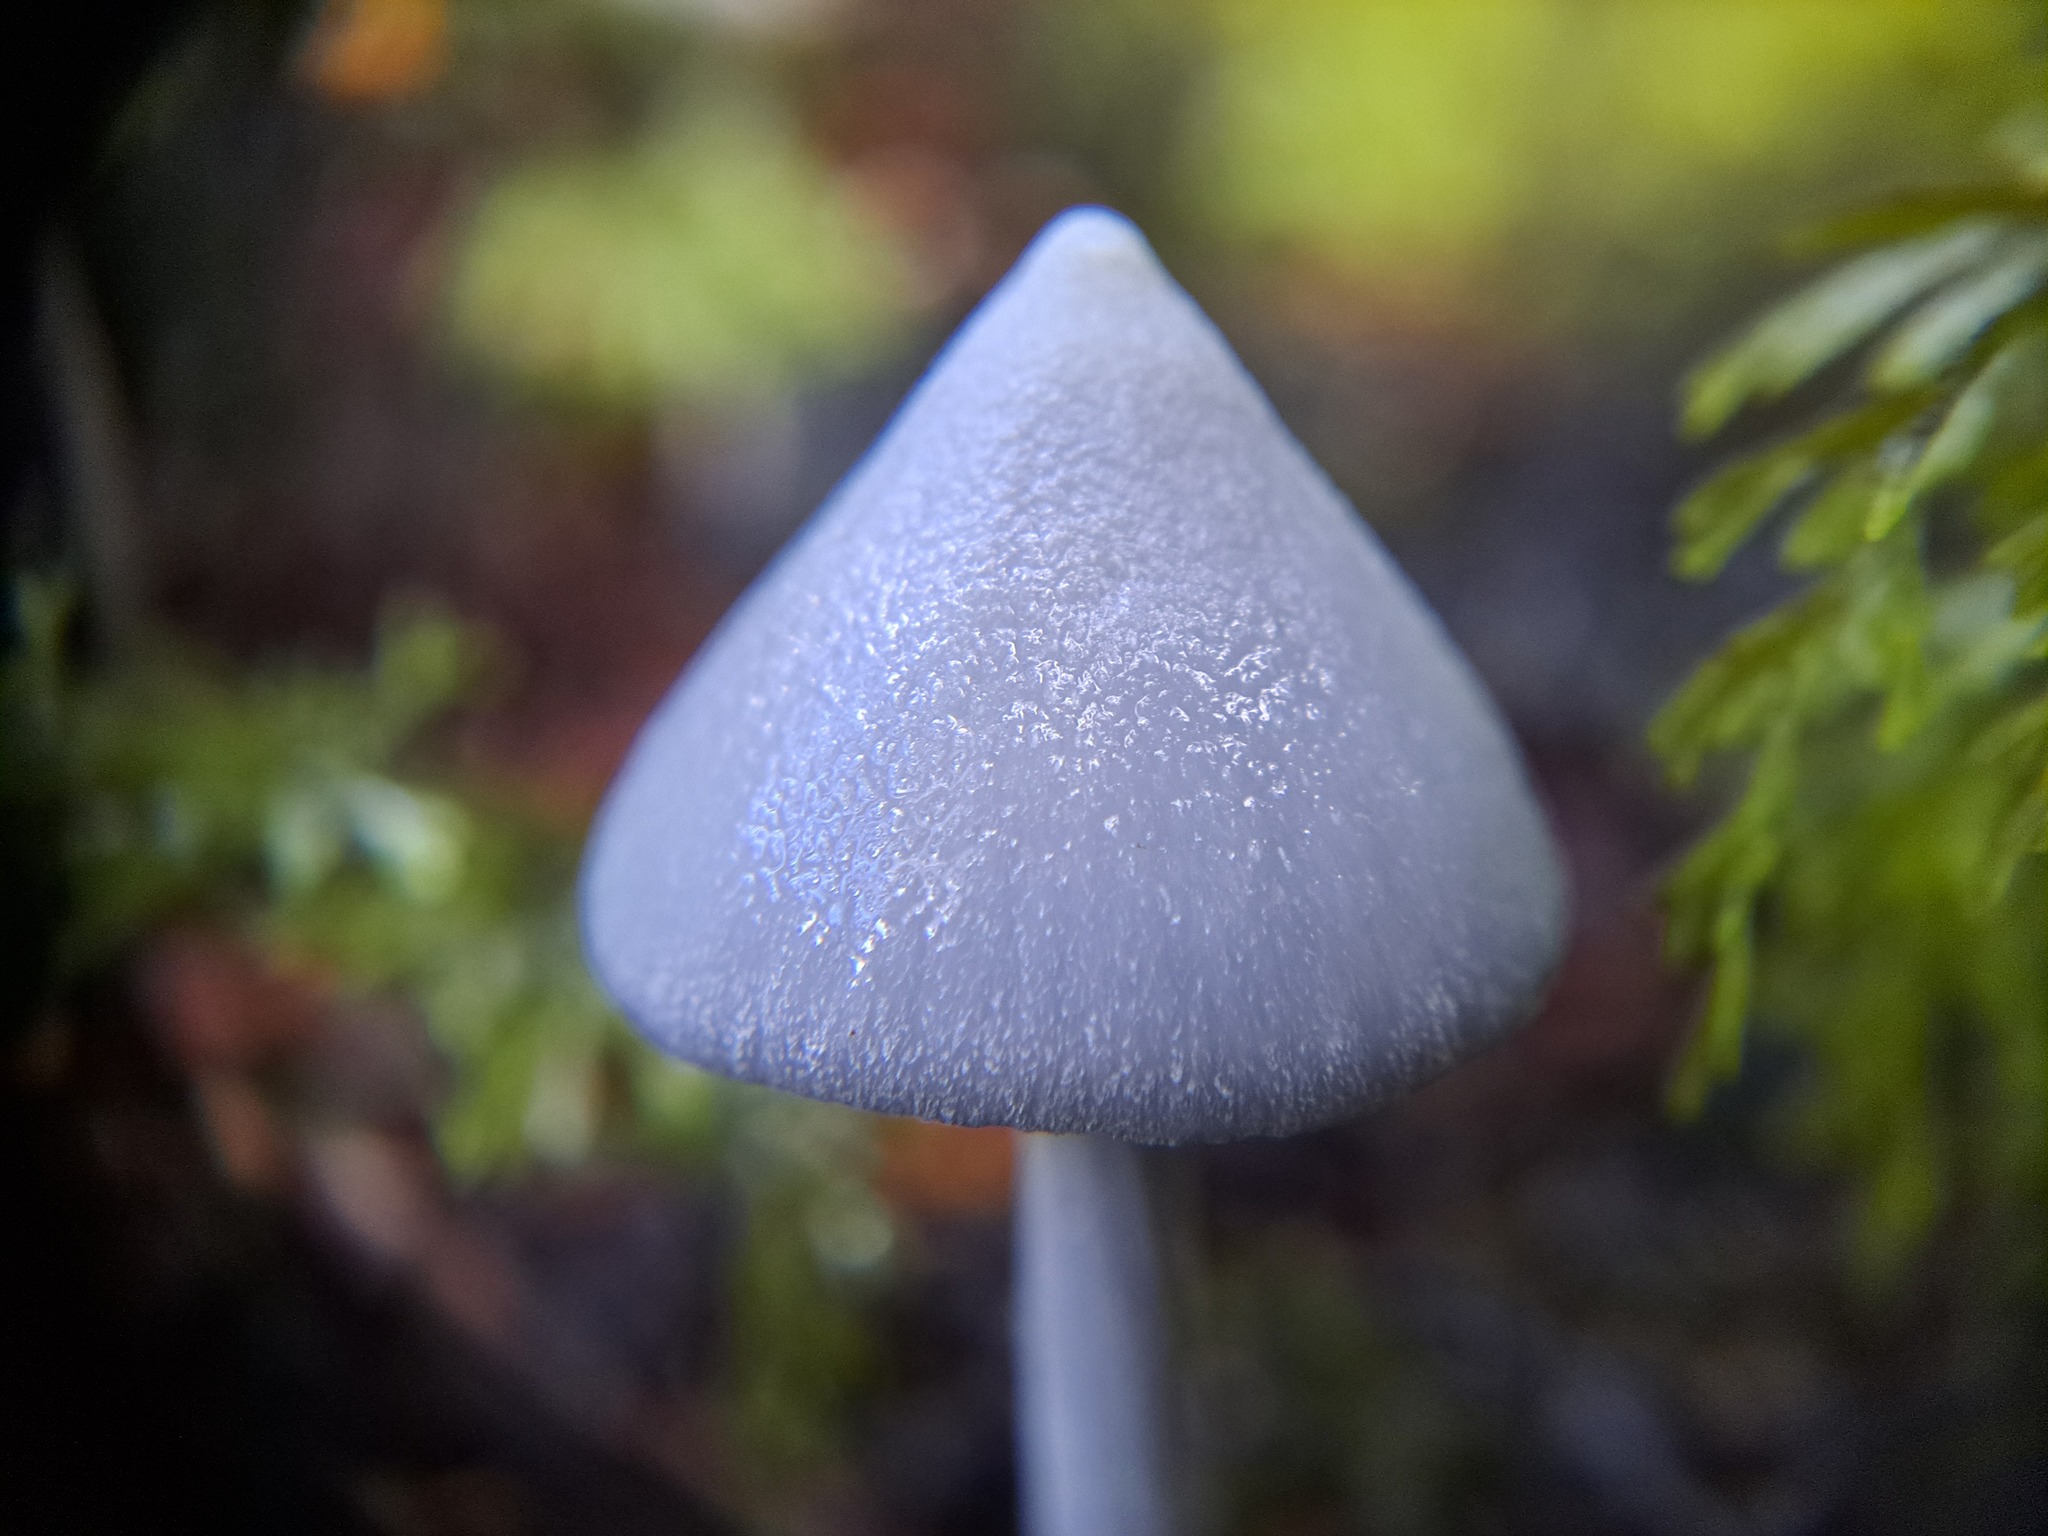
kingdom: Fungi
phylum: Basidiomycota
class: Agaricomycetes
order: Agaricales
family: Entolomataceae
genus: Entoloma
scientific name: Entoloma hochstetteri
